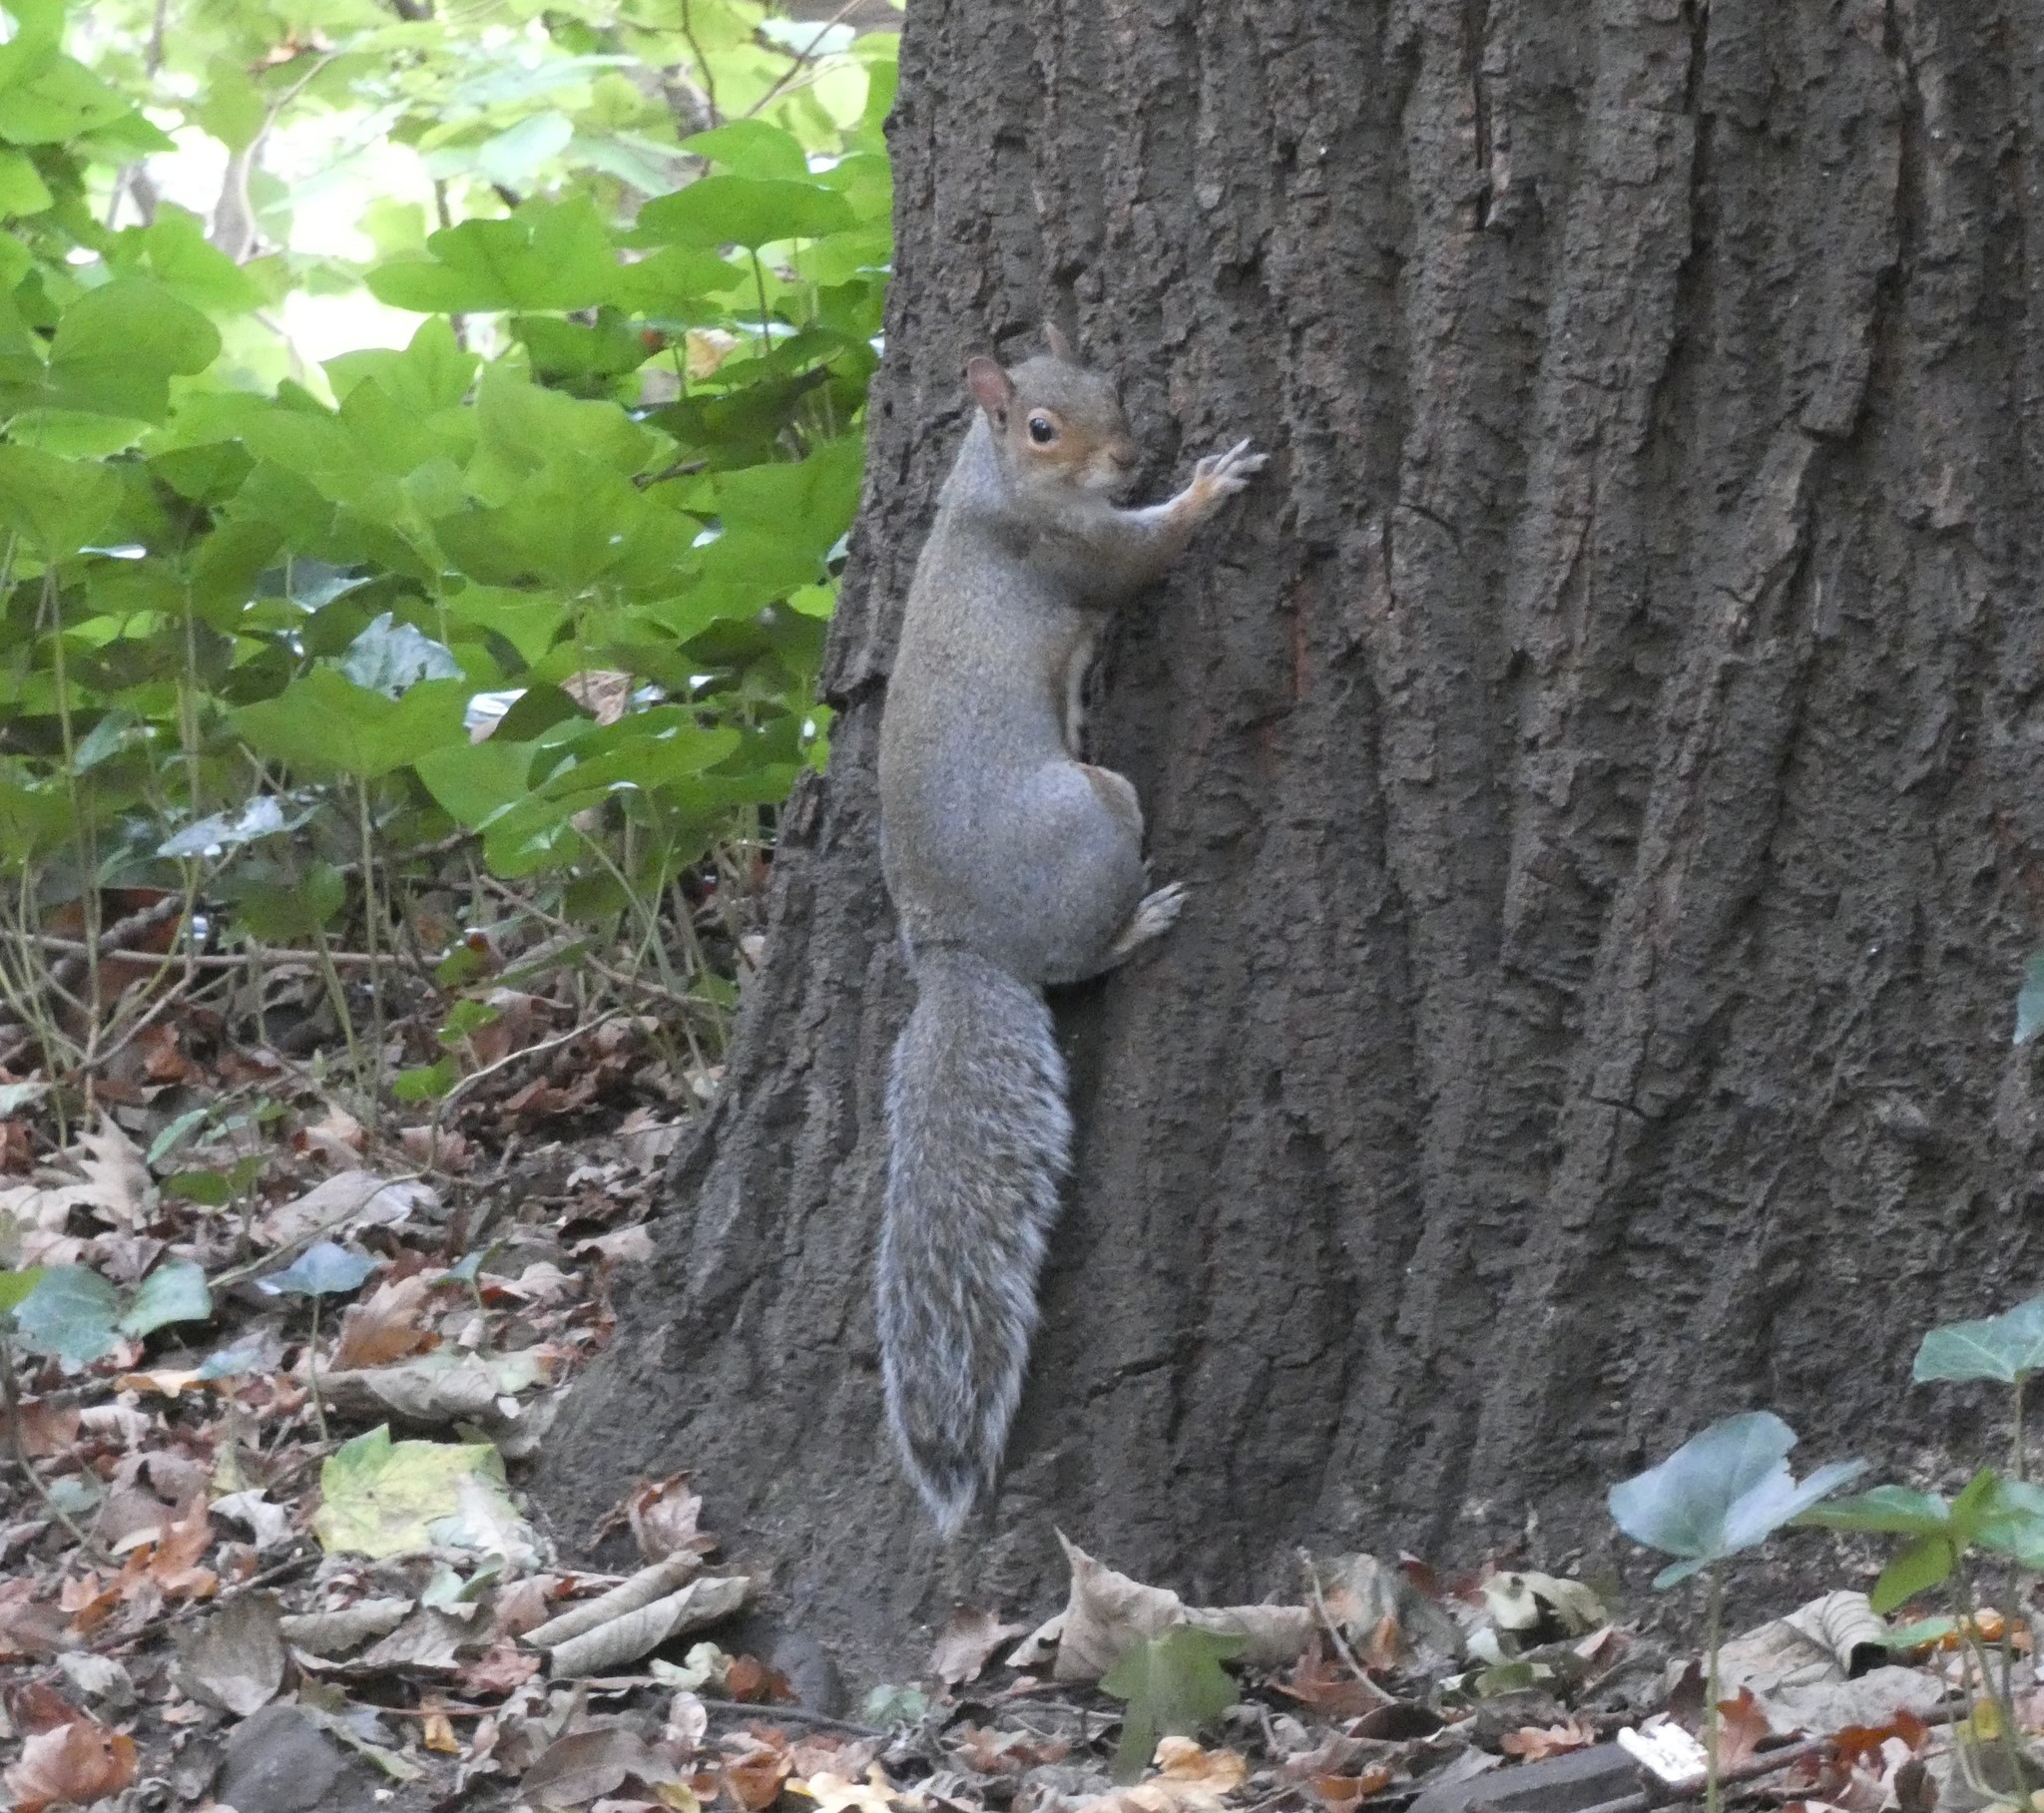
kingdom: Animalia
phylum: Chordata
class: Mammalia
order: Rodentia
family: Sciuridae
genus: Sciurus
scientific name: Sciurus carolinensis
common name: Eastern gray squirrel
